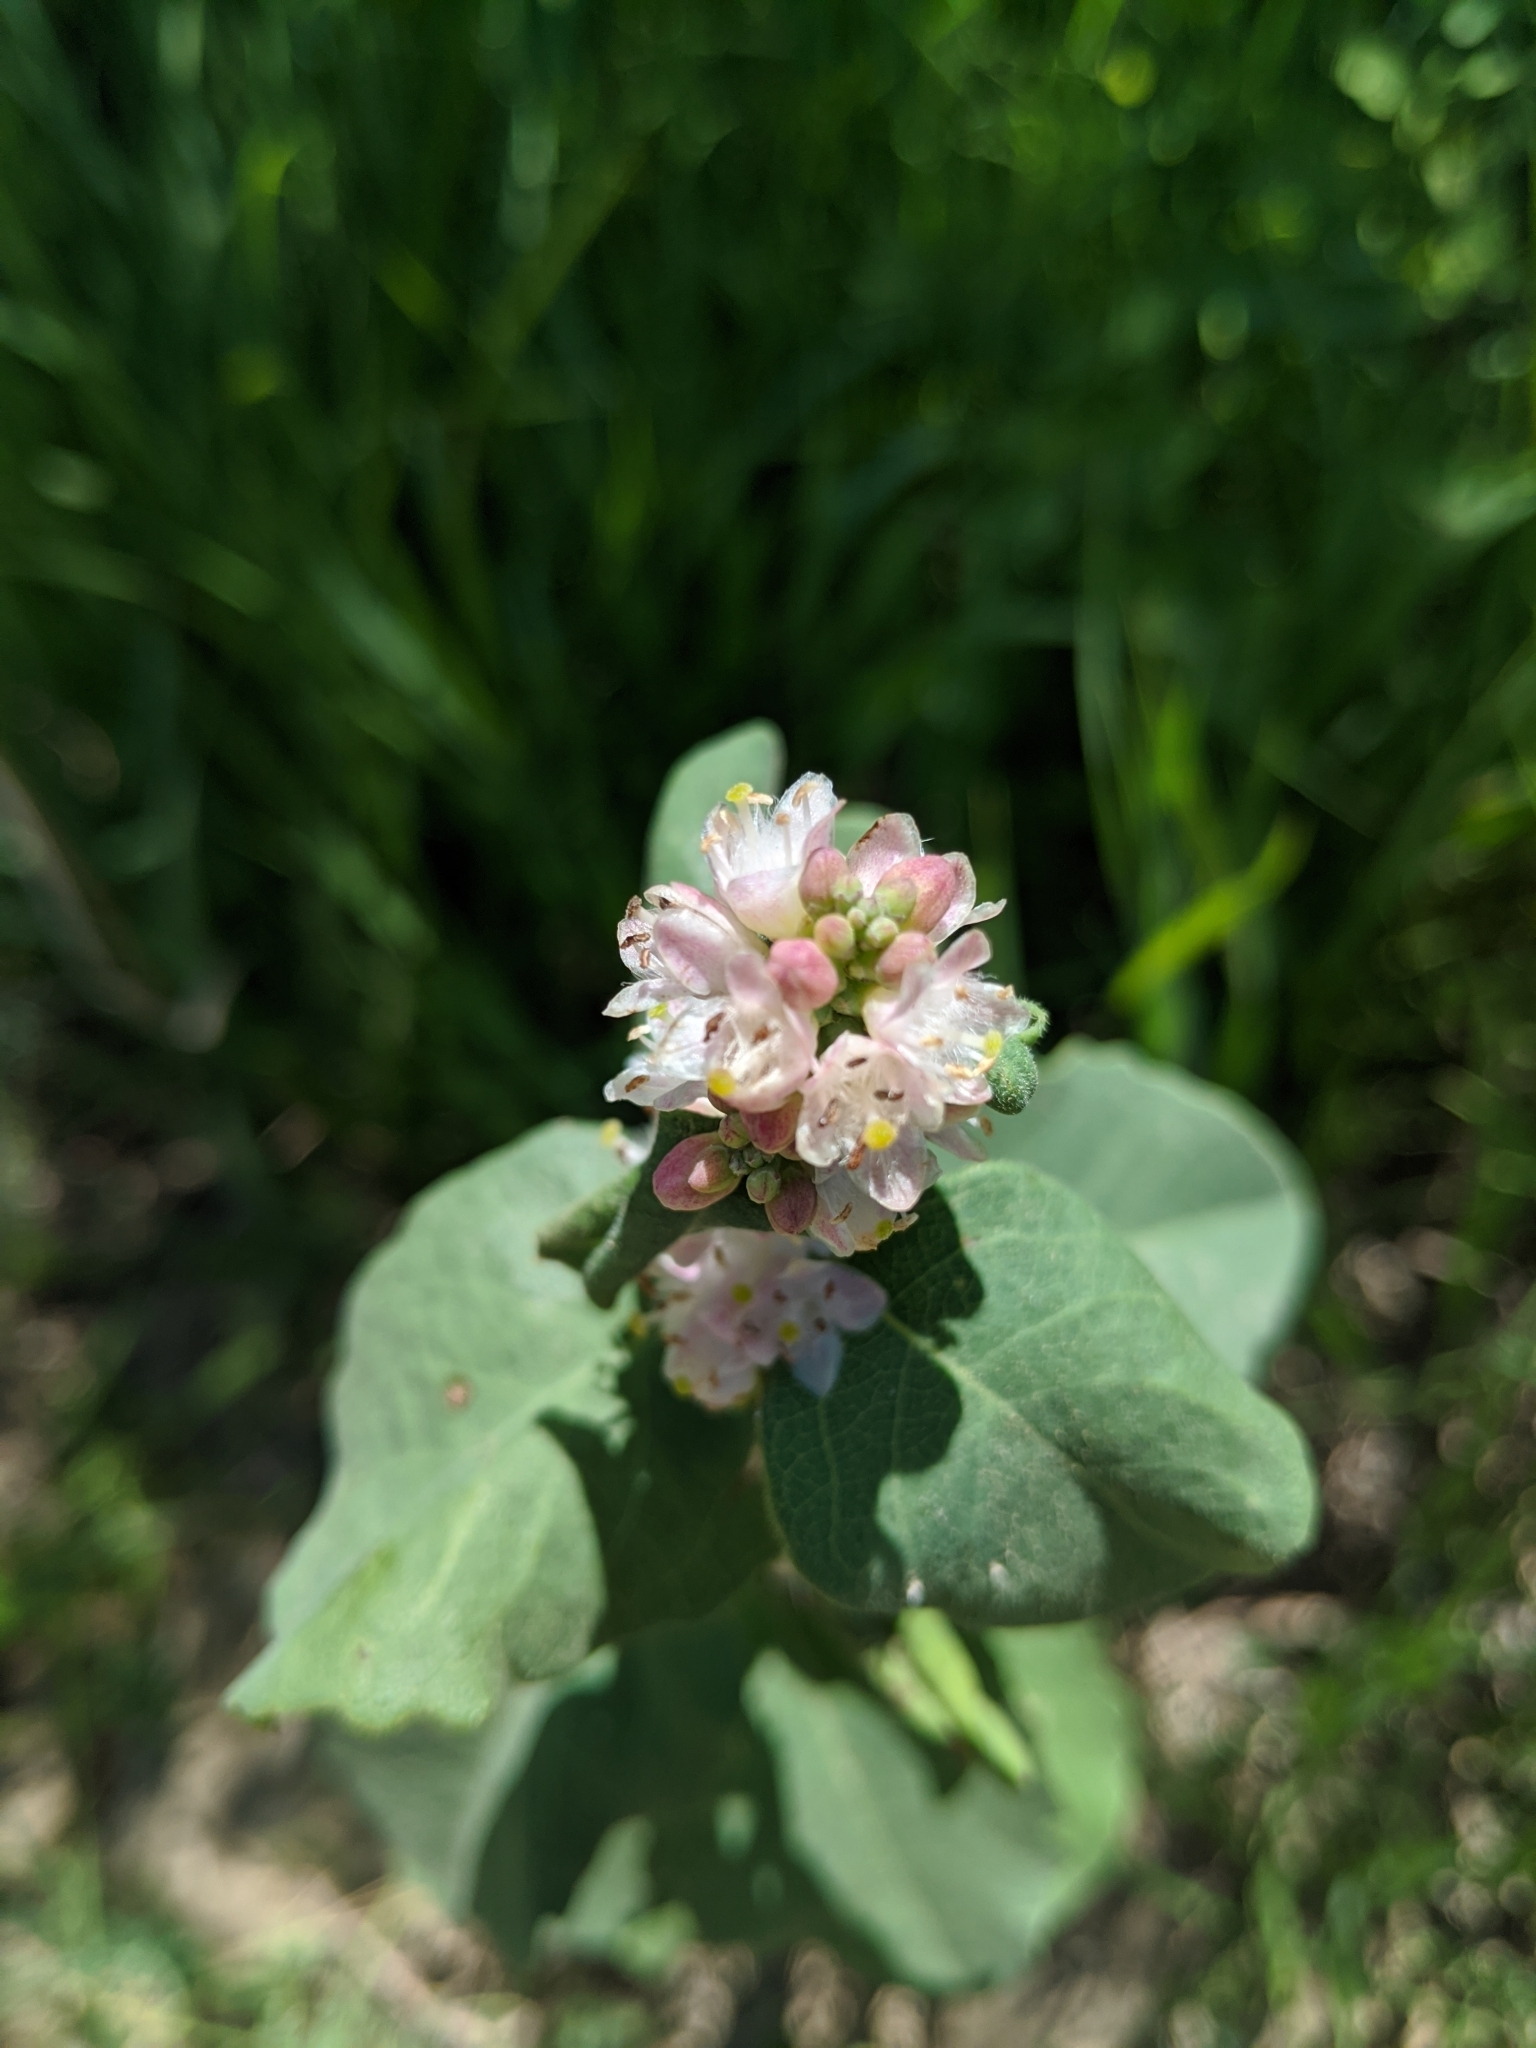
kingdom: Plantae
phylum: Tracheophyta
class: Magnoliopsida
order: Dipsacales
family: Caprifoliaceae
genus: Symphoricarpos
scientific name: Symphoricarpos occidentalis
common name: Wolfberry
